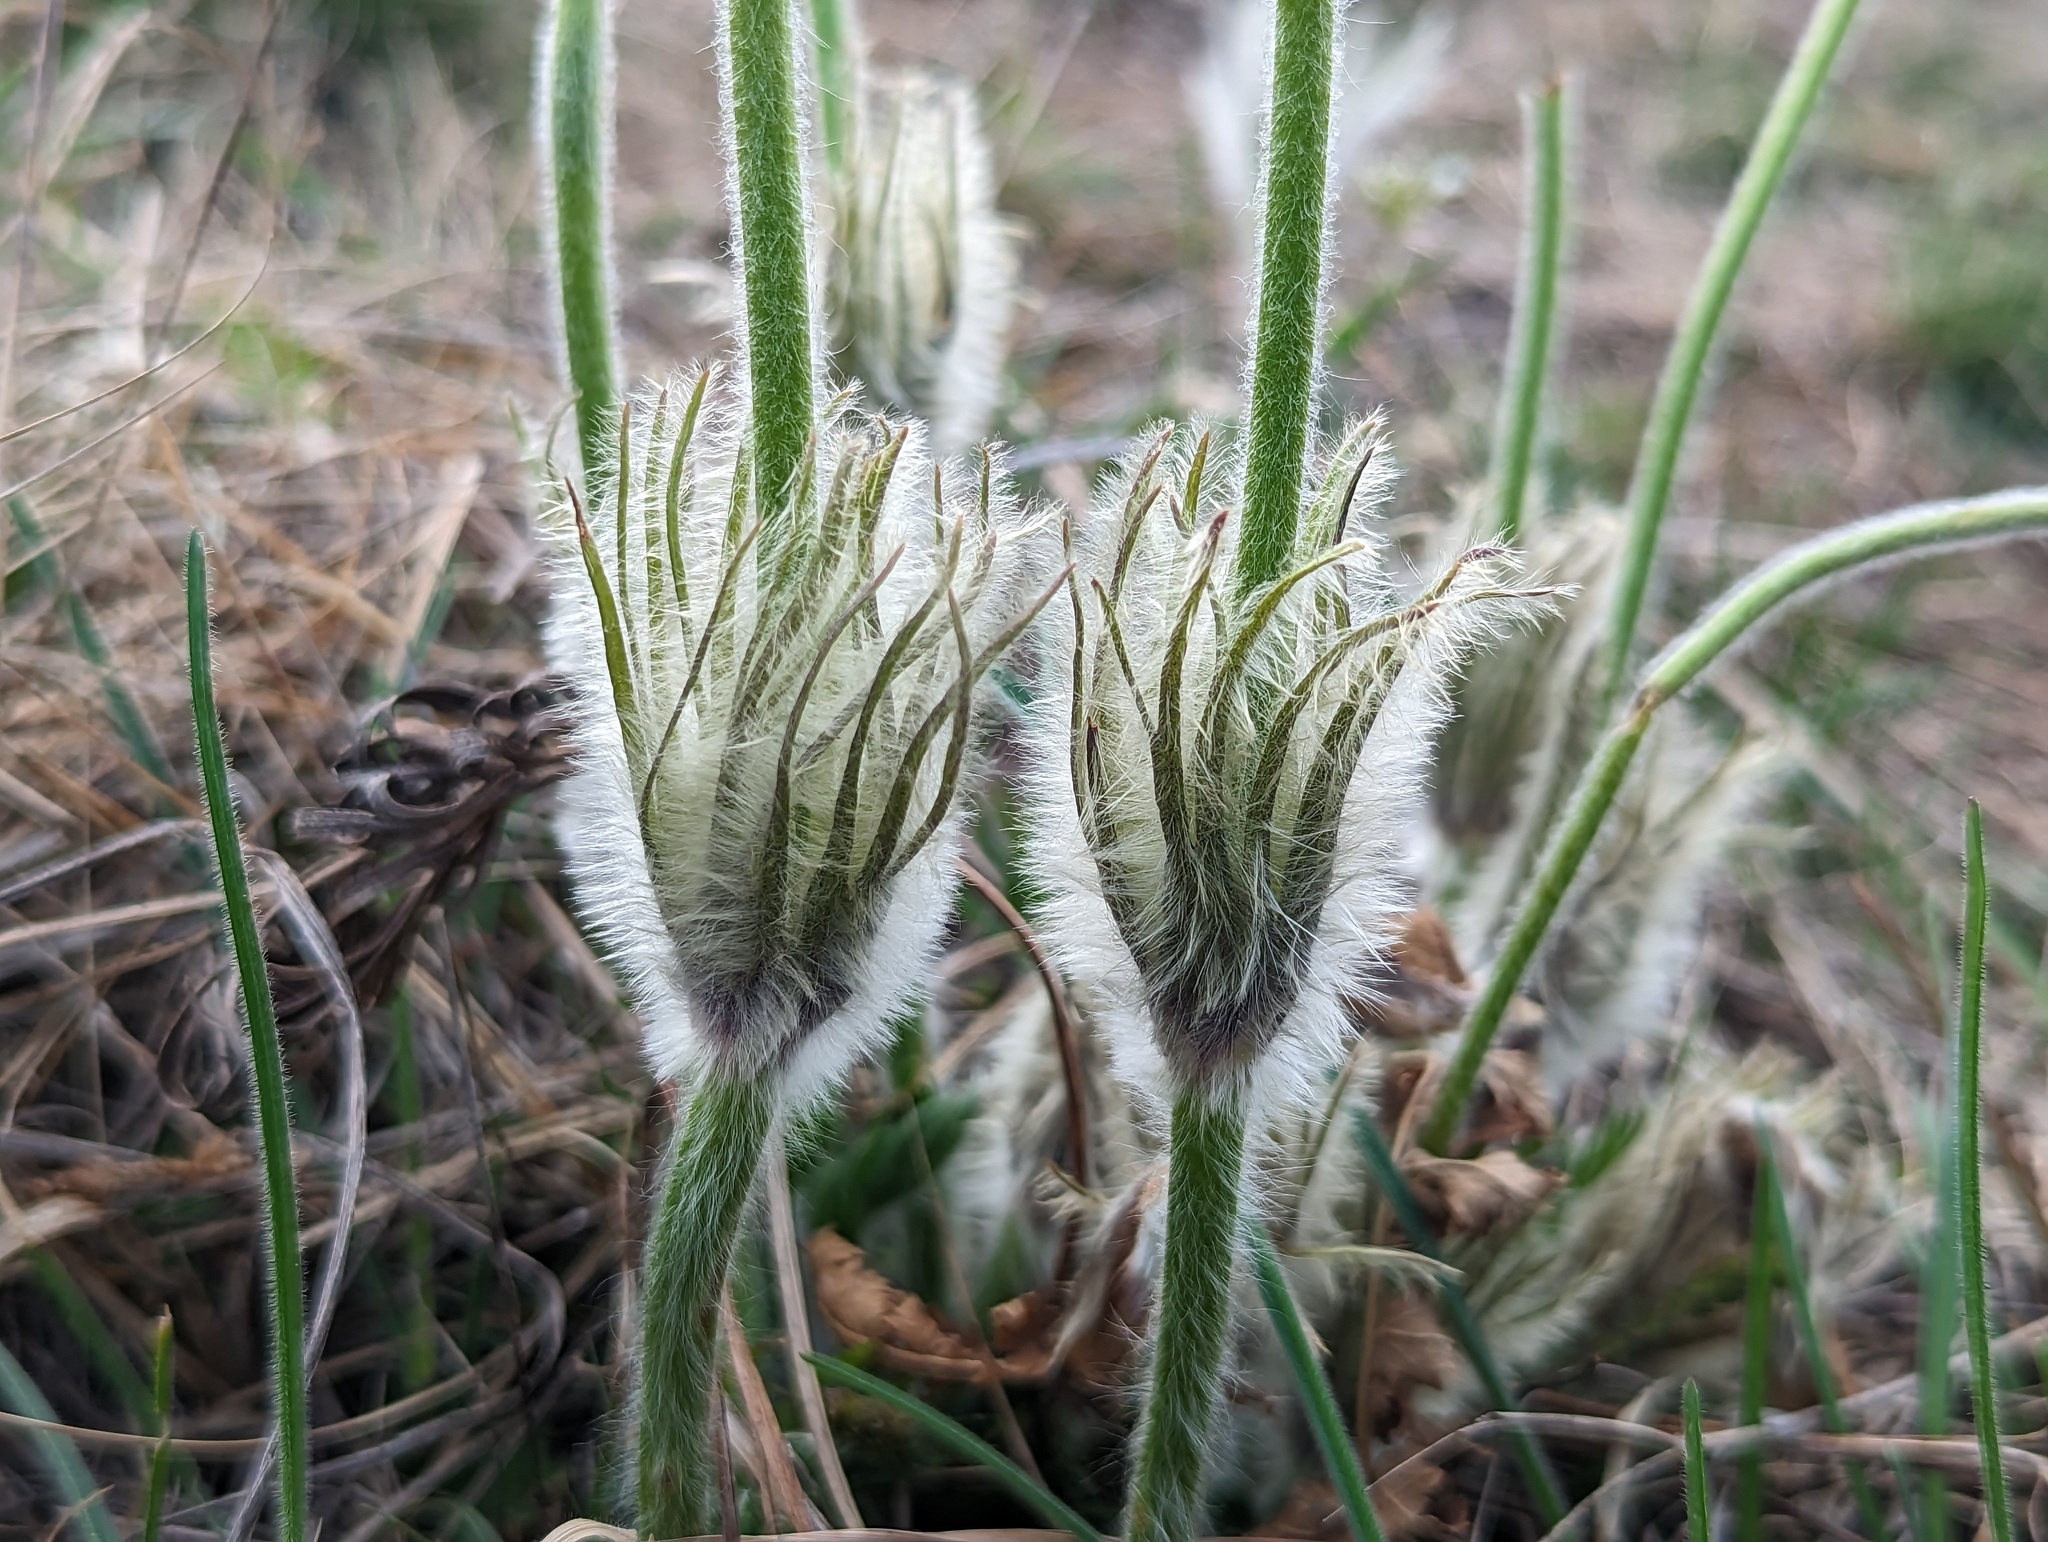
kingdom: Plantae
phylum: Tracheophyta
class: Magnoliopsida
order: Ranunculales
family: Ranunculaceae
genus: Pulsatilla
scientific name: Pulsatilla grandis
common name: Greater pasque flower
